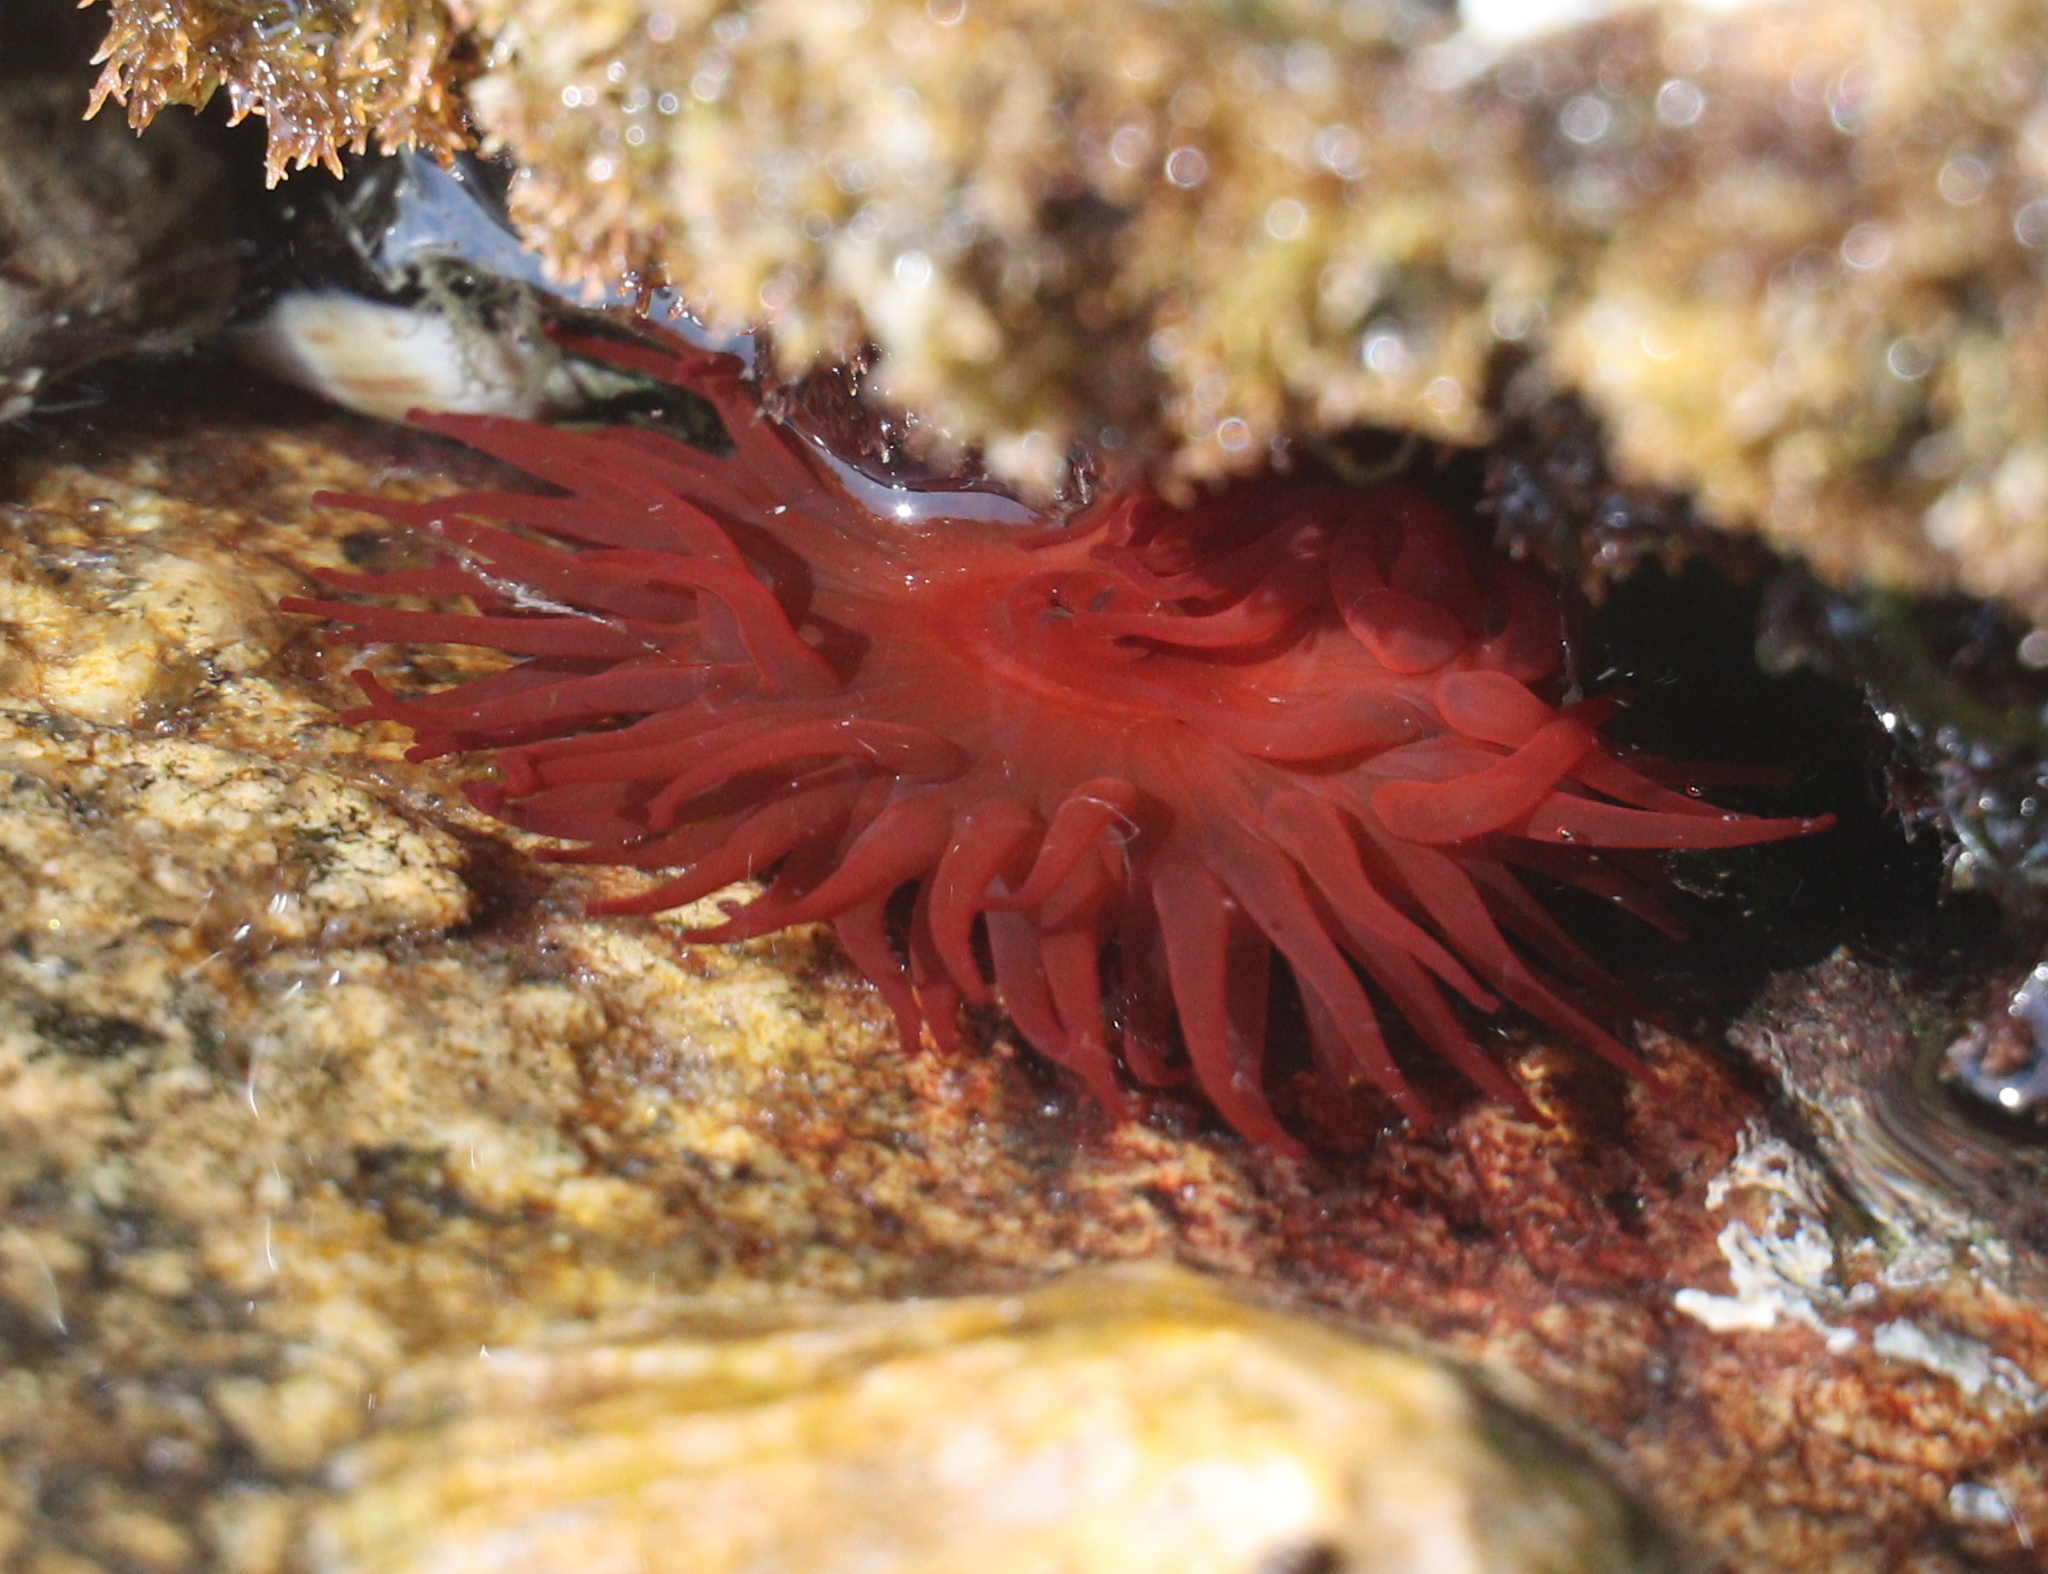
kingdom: Animalia
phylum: Cnidaria
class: Anthozoa
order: Actiniaria
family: Actiniidae
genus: Actinia
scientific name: Actinia equina
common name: Beadlet anemone
